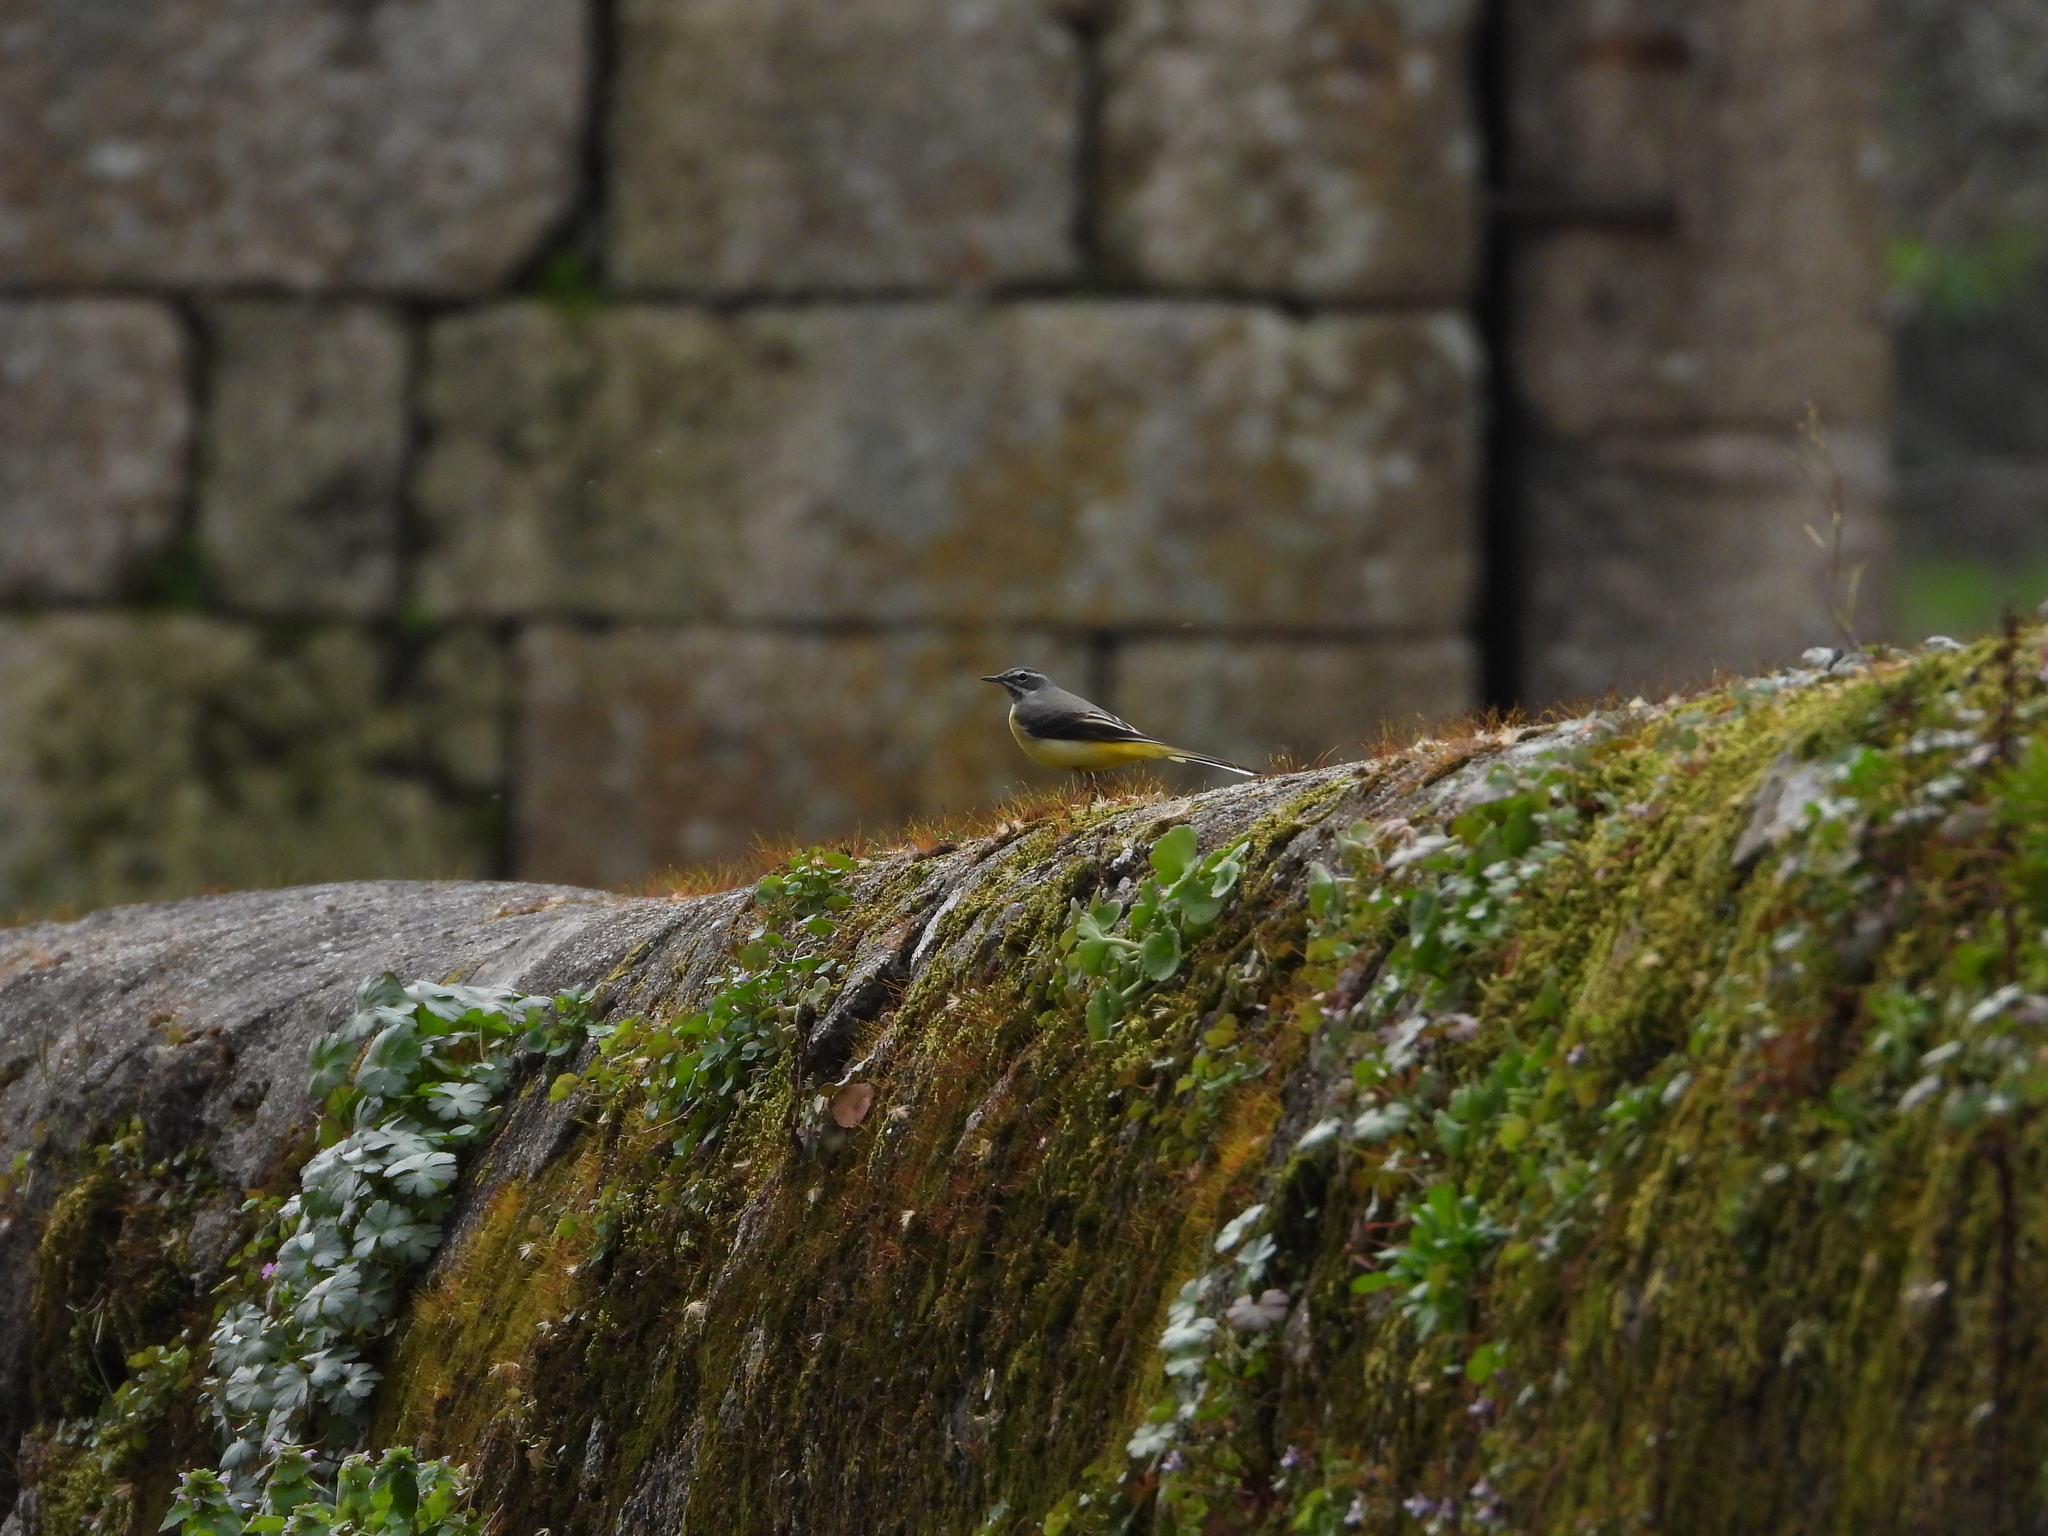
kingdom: Animalia
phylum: Chordata
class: Aves
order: Passeriformes
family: Motacillidae
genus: Motacilla
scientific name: Motacilla cinerea
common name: Grey wagtail
